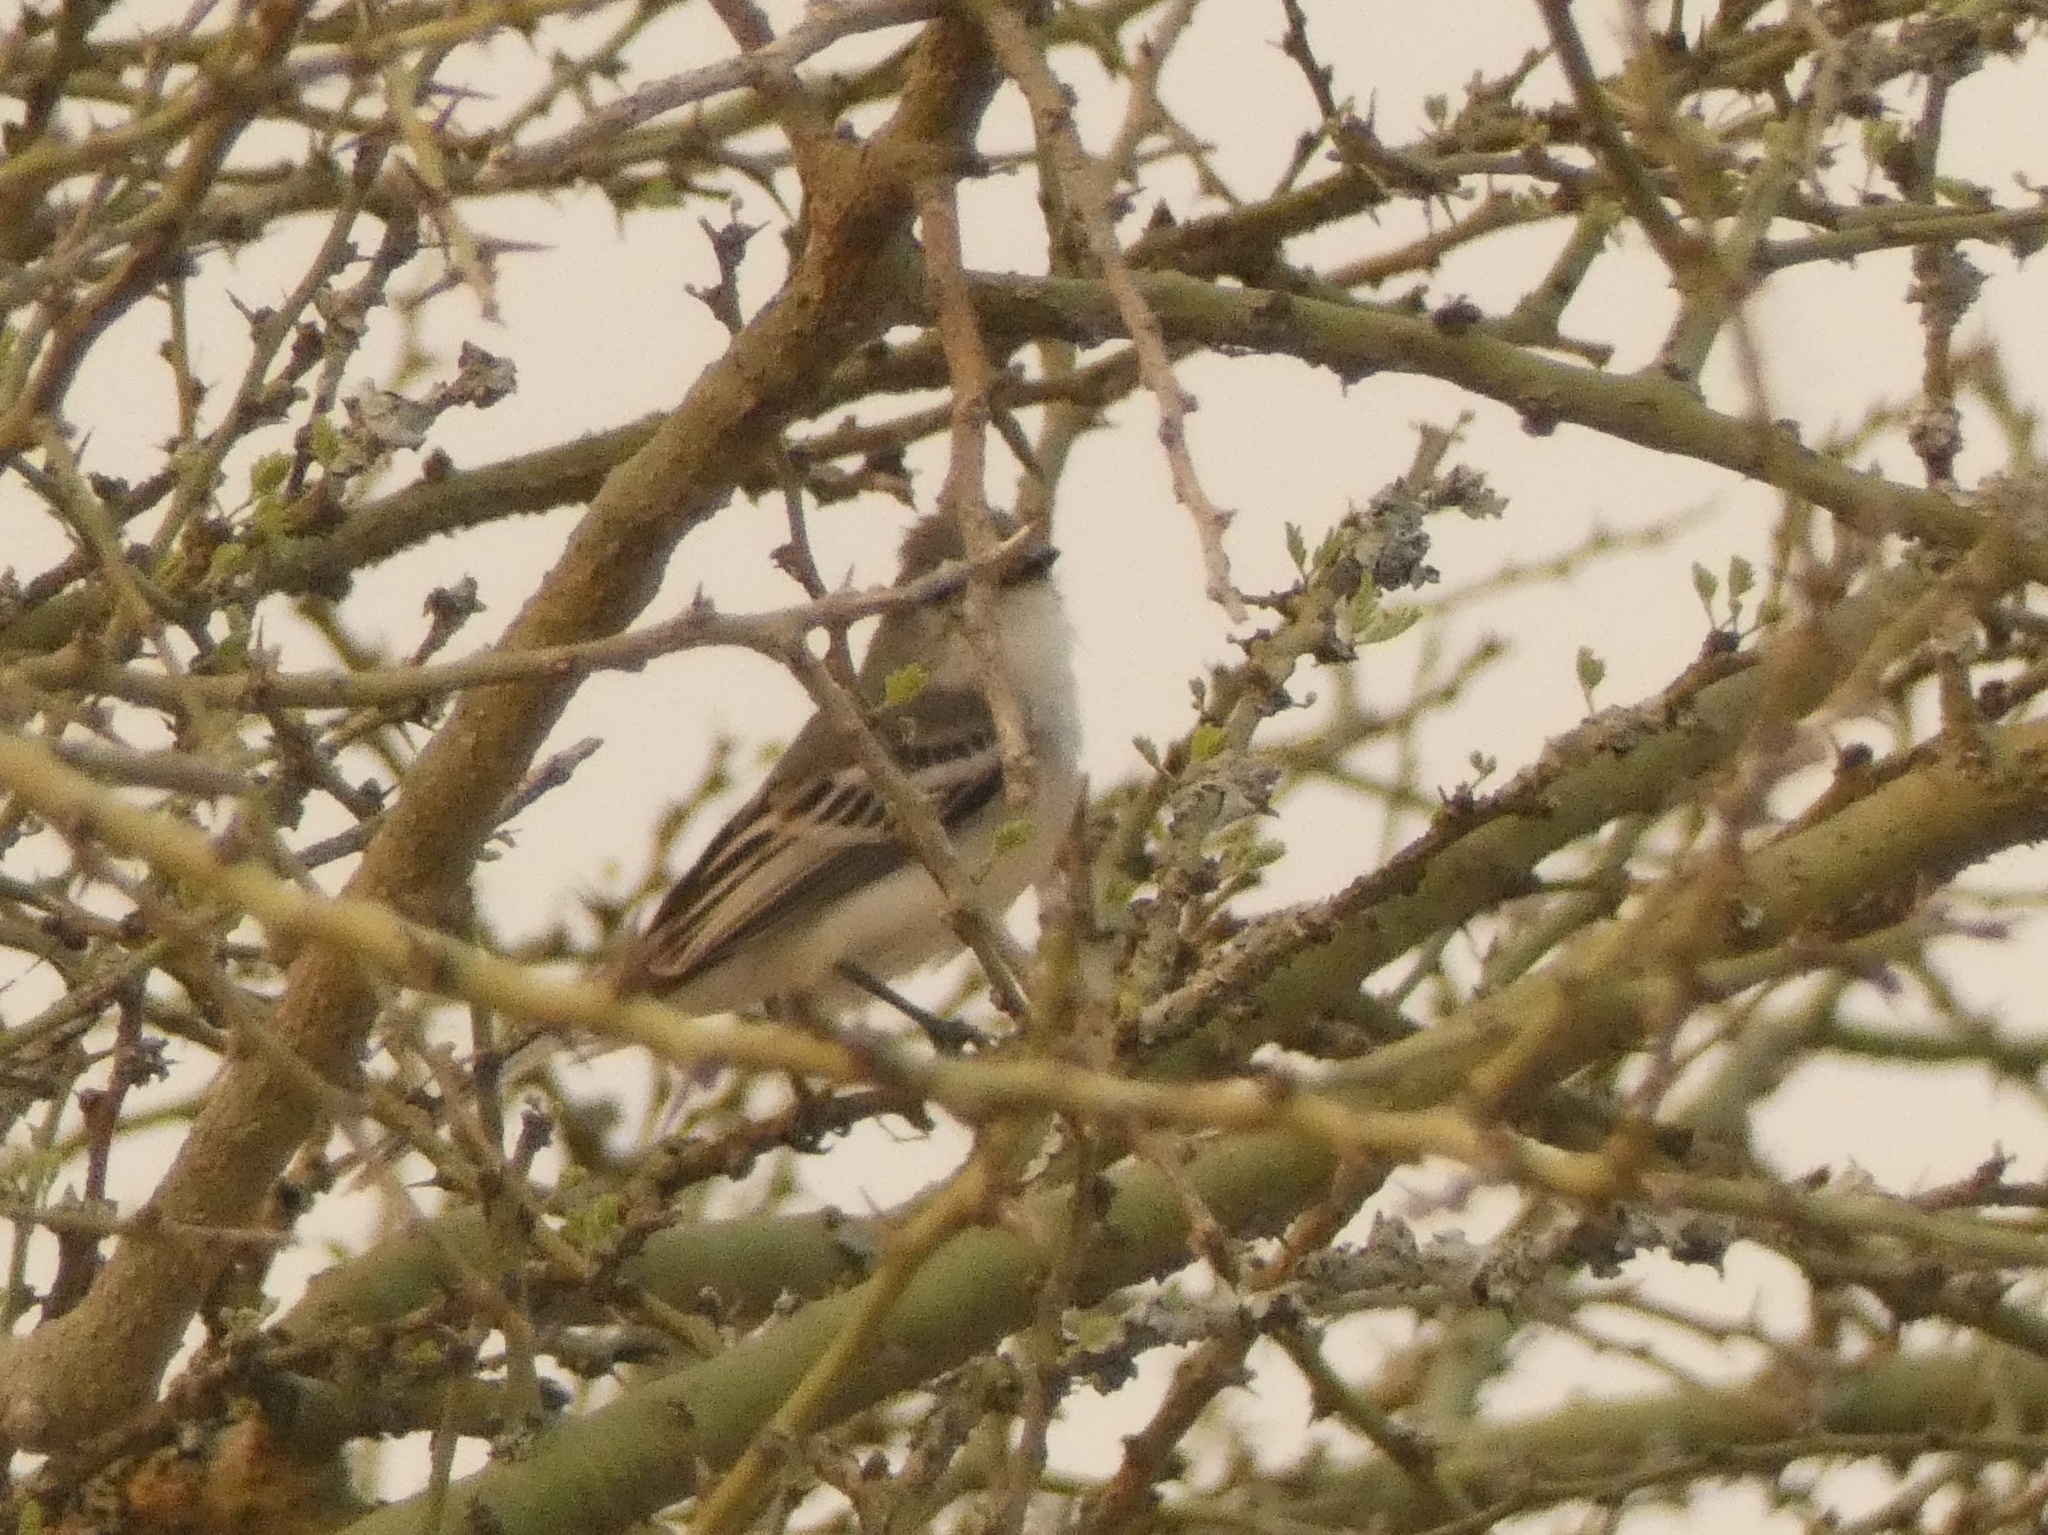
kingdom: Animalia
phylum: Chordata
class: Aves
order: Passeriformes
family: Tyrannidae
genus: Suiriri
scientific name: Suiriri suiriri
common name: Suiriri flycatcher
